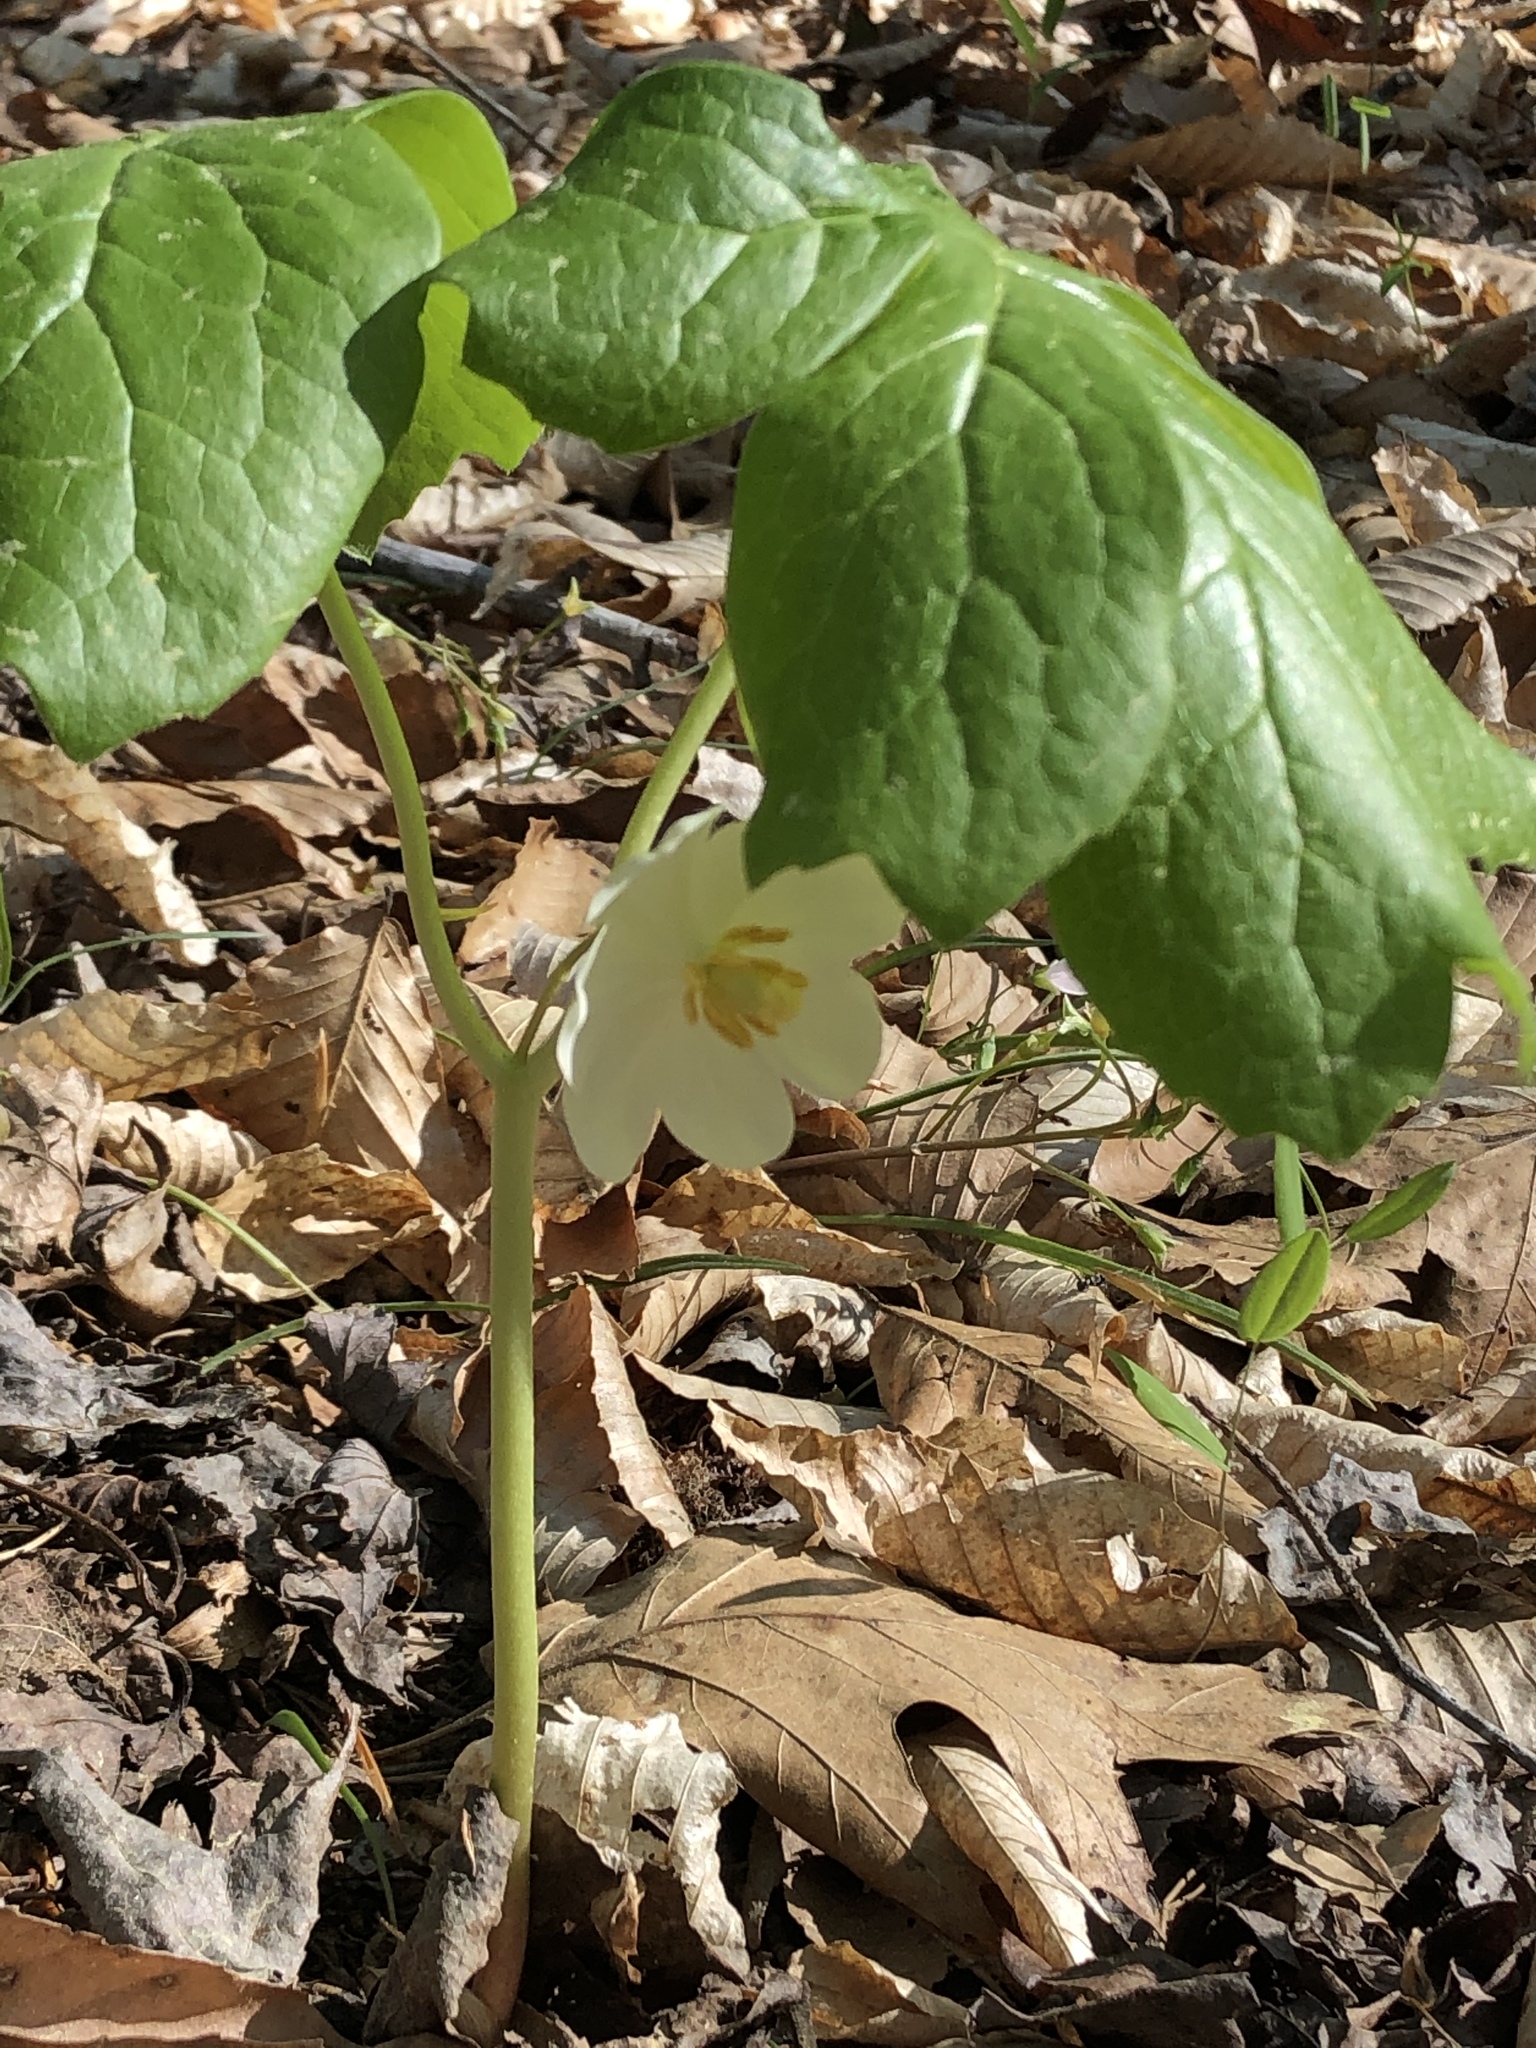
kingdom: Plantae
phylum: Tracheophyta
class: Magnoliopsida
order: Ranunculales
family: Berberidaceae
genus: Podophyllum
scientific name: Podophyllum peltatum
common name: Wild mandrake
